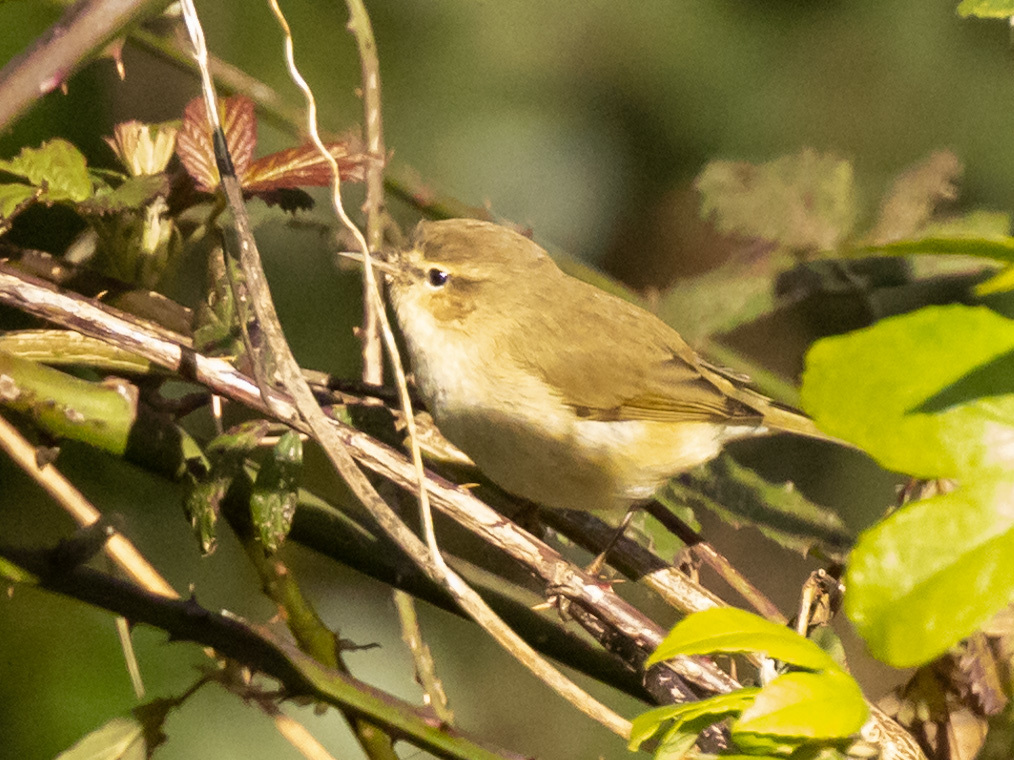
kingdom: Animalia
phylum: Chordata
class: Aves
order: Passeriformes
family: Phylloscopidae
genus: Phylloscopus
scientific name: Phylloscopus collybita
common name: Common chiffchaff
